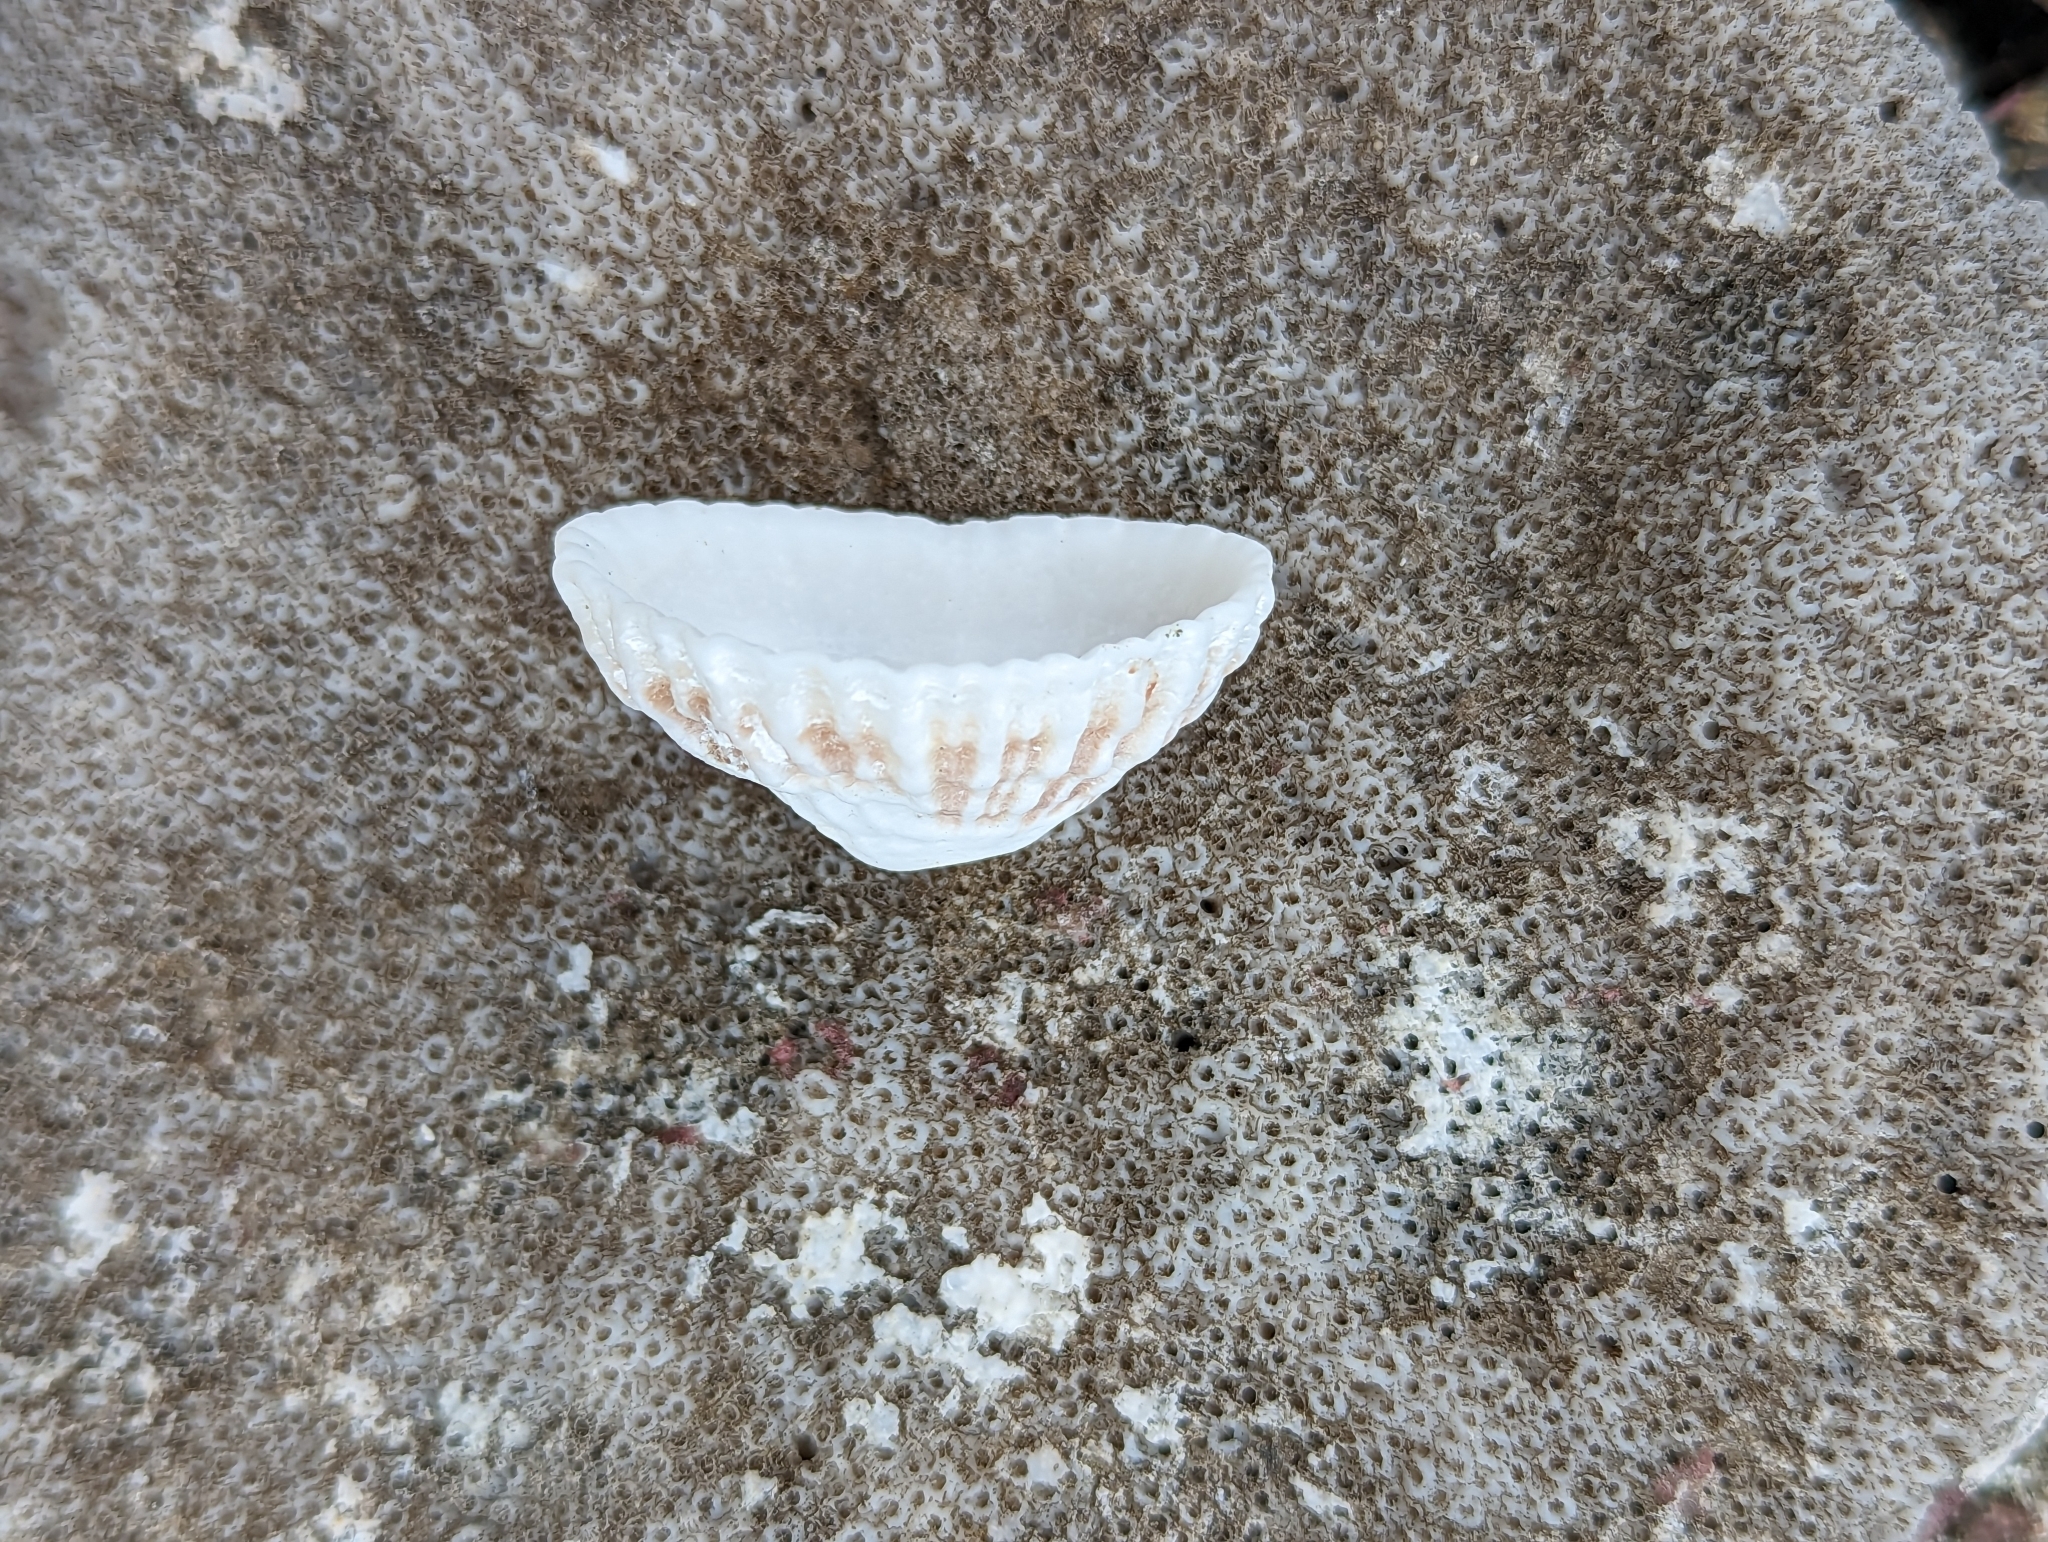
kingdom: Animalia
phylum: Mollusca
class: Gastropoda
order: Lepetellida
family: Fissurellidae
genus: Fissurella
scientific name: Fissurella nodosa
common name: Knobby keyhole limpet
